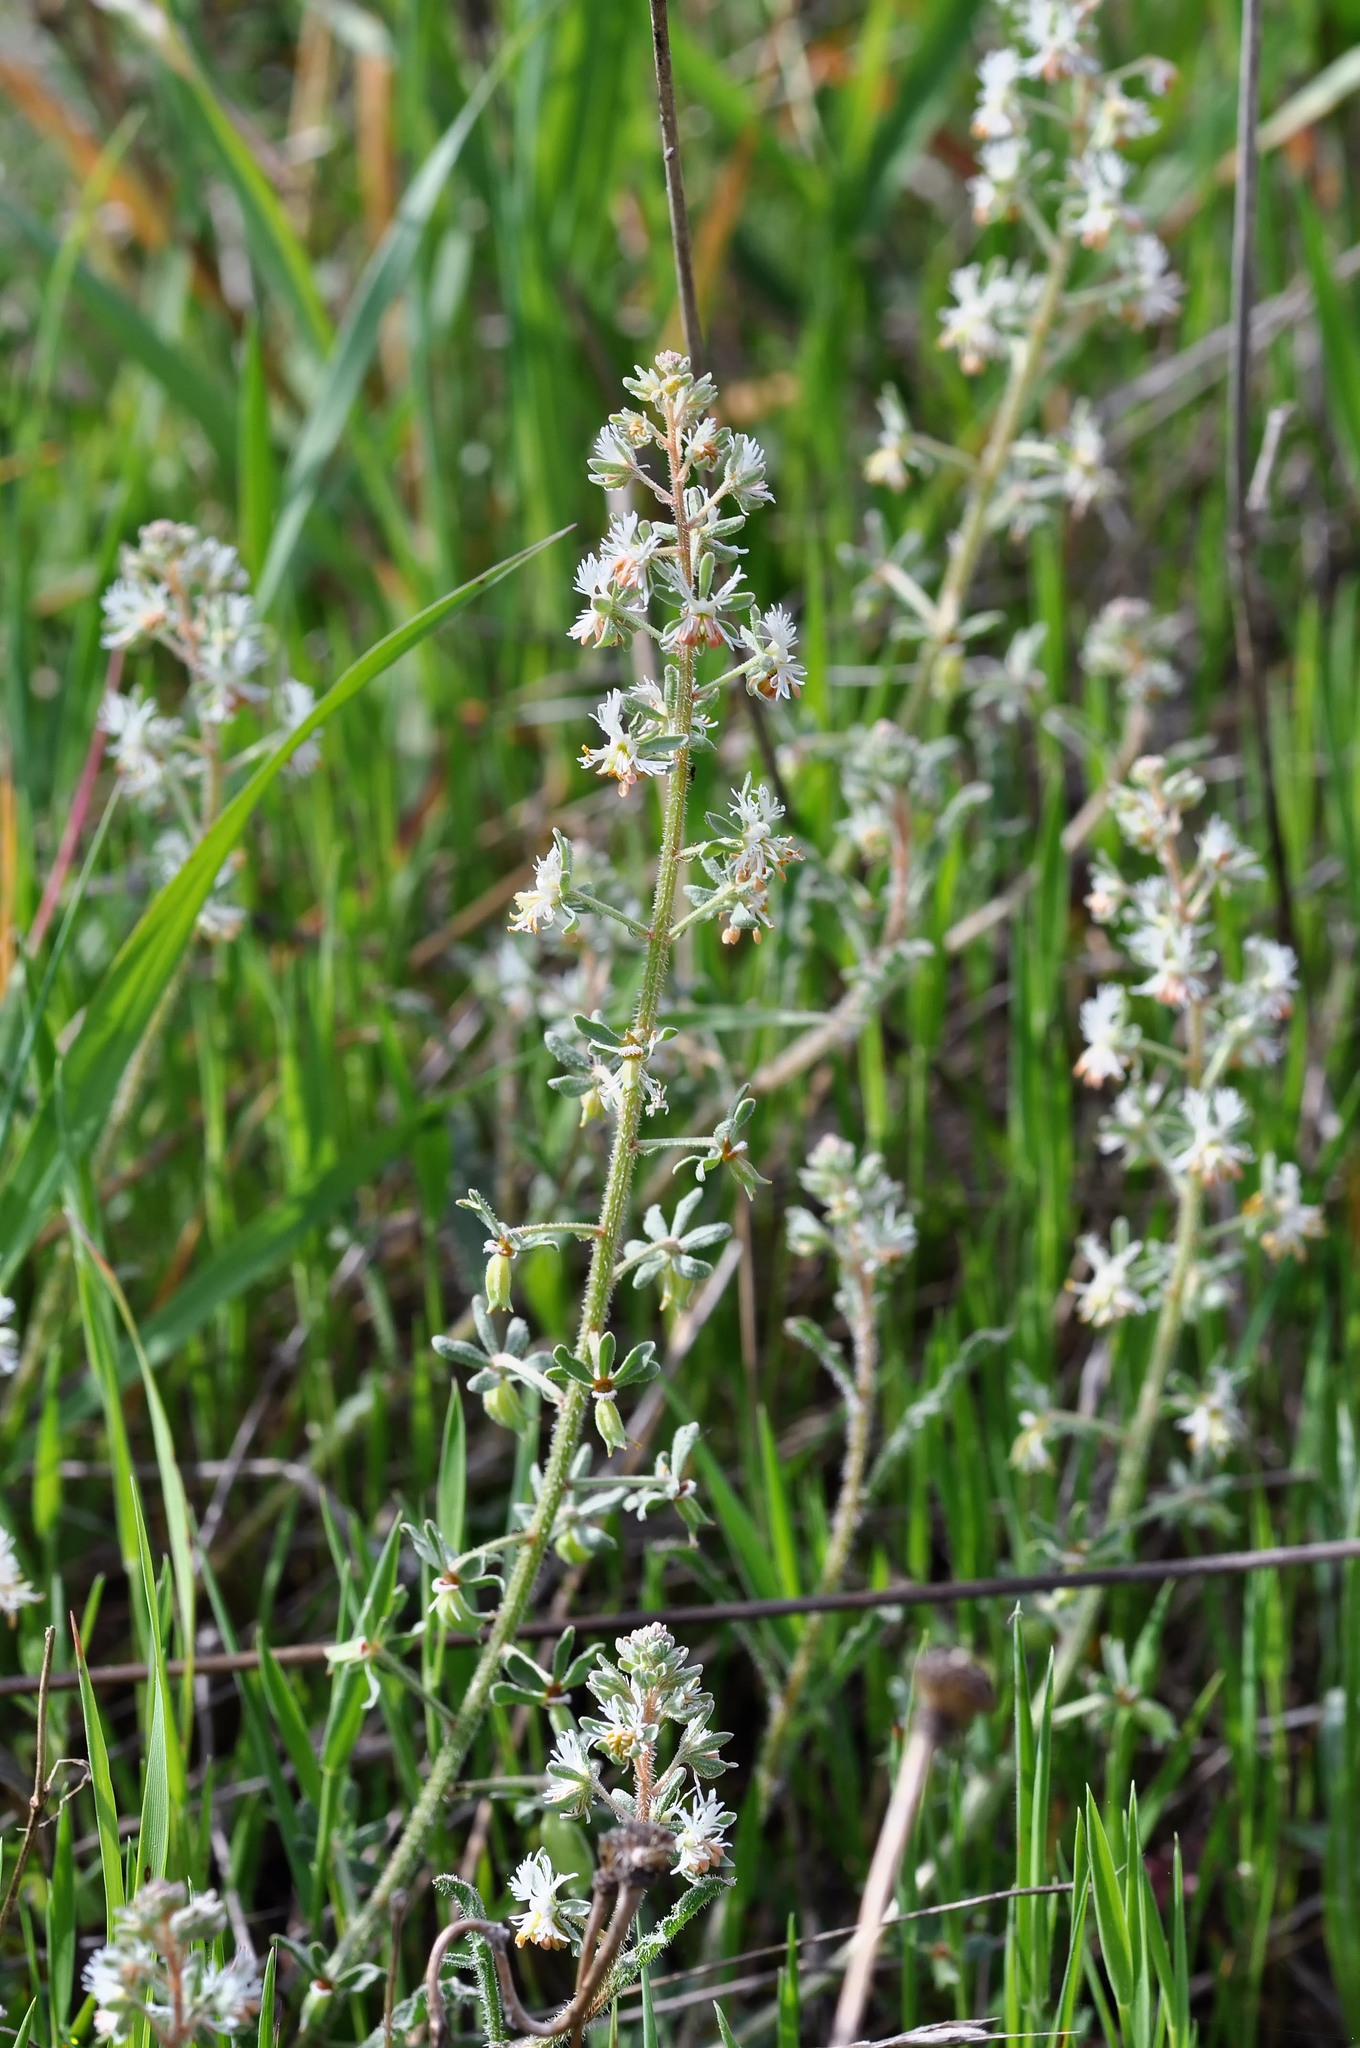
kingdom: Plantae
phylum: Tracheophyta
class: Magnoliopsida
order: Brassicales
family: Resedaceae
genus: Reseda
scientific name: Reseda phyteuma
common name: Corn mignonette
